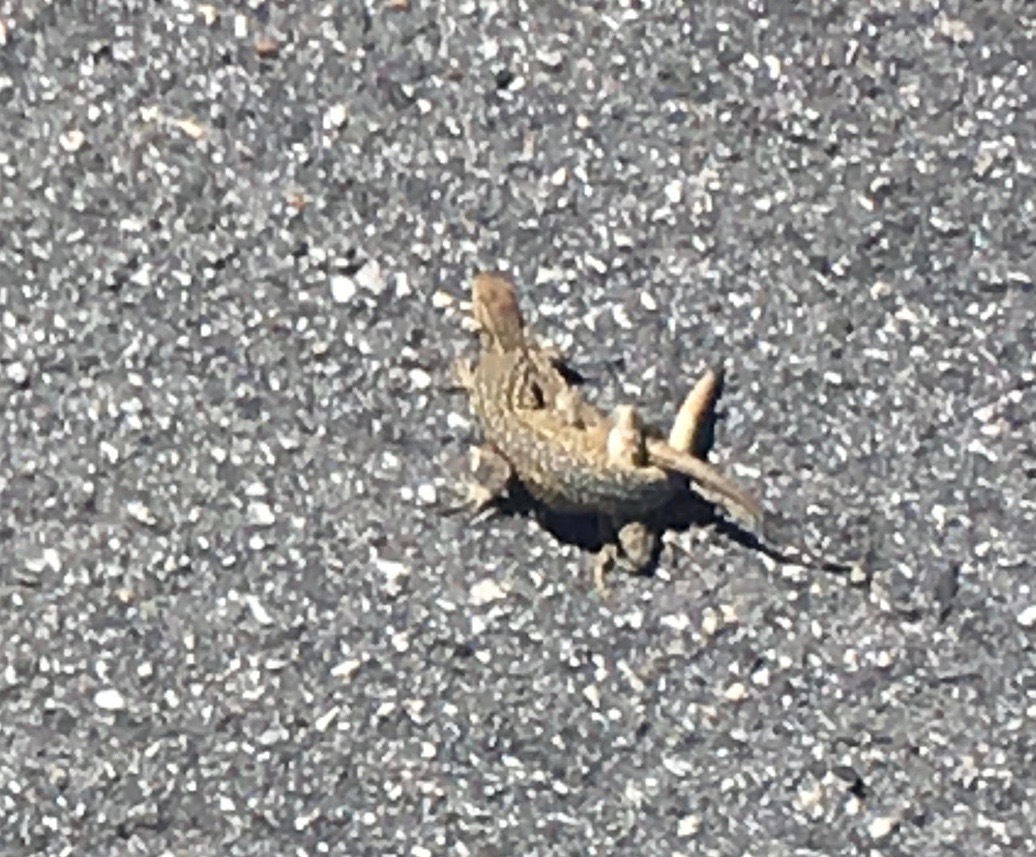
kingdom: Animalia
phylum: Chordata
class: Squamata
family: Phrynosomatidae
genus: Uta
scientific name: Uta stansburiana
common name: Side-blotched lizard
